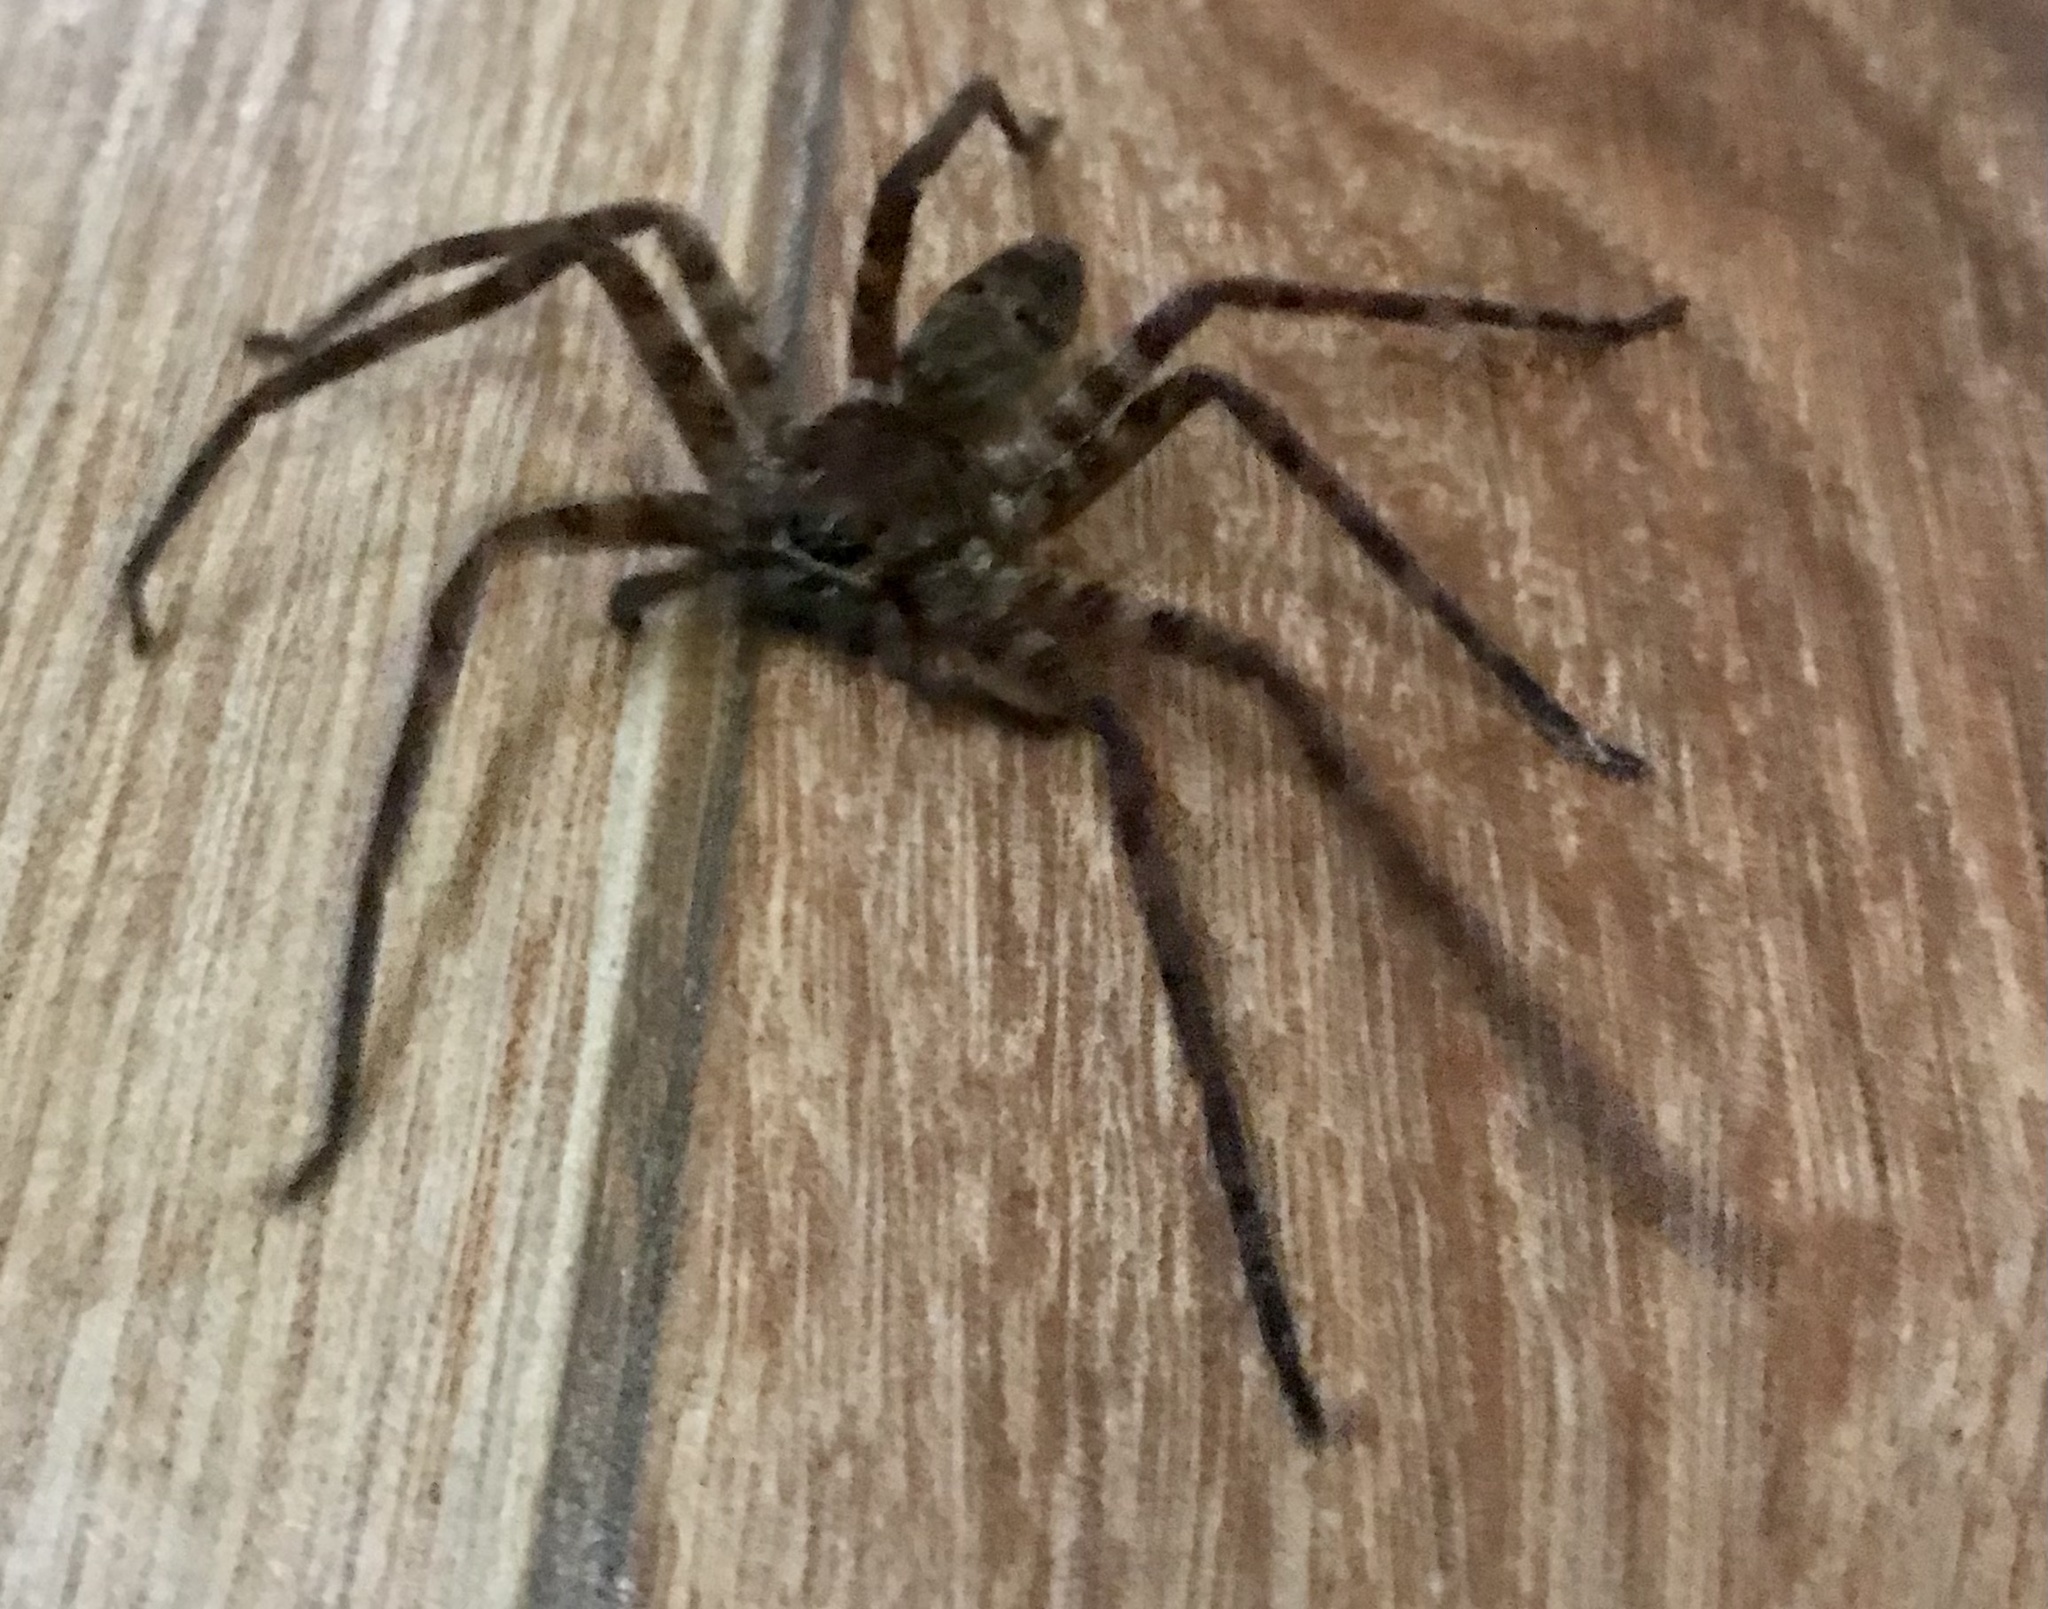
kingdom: Animalia
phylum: Arthropoda
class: Arachnida
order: Araneae
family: Sparassidae
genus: Heteropoda
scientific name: Heteropoda venatoria
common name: Huntsman spider
